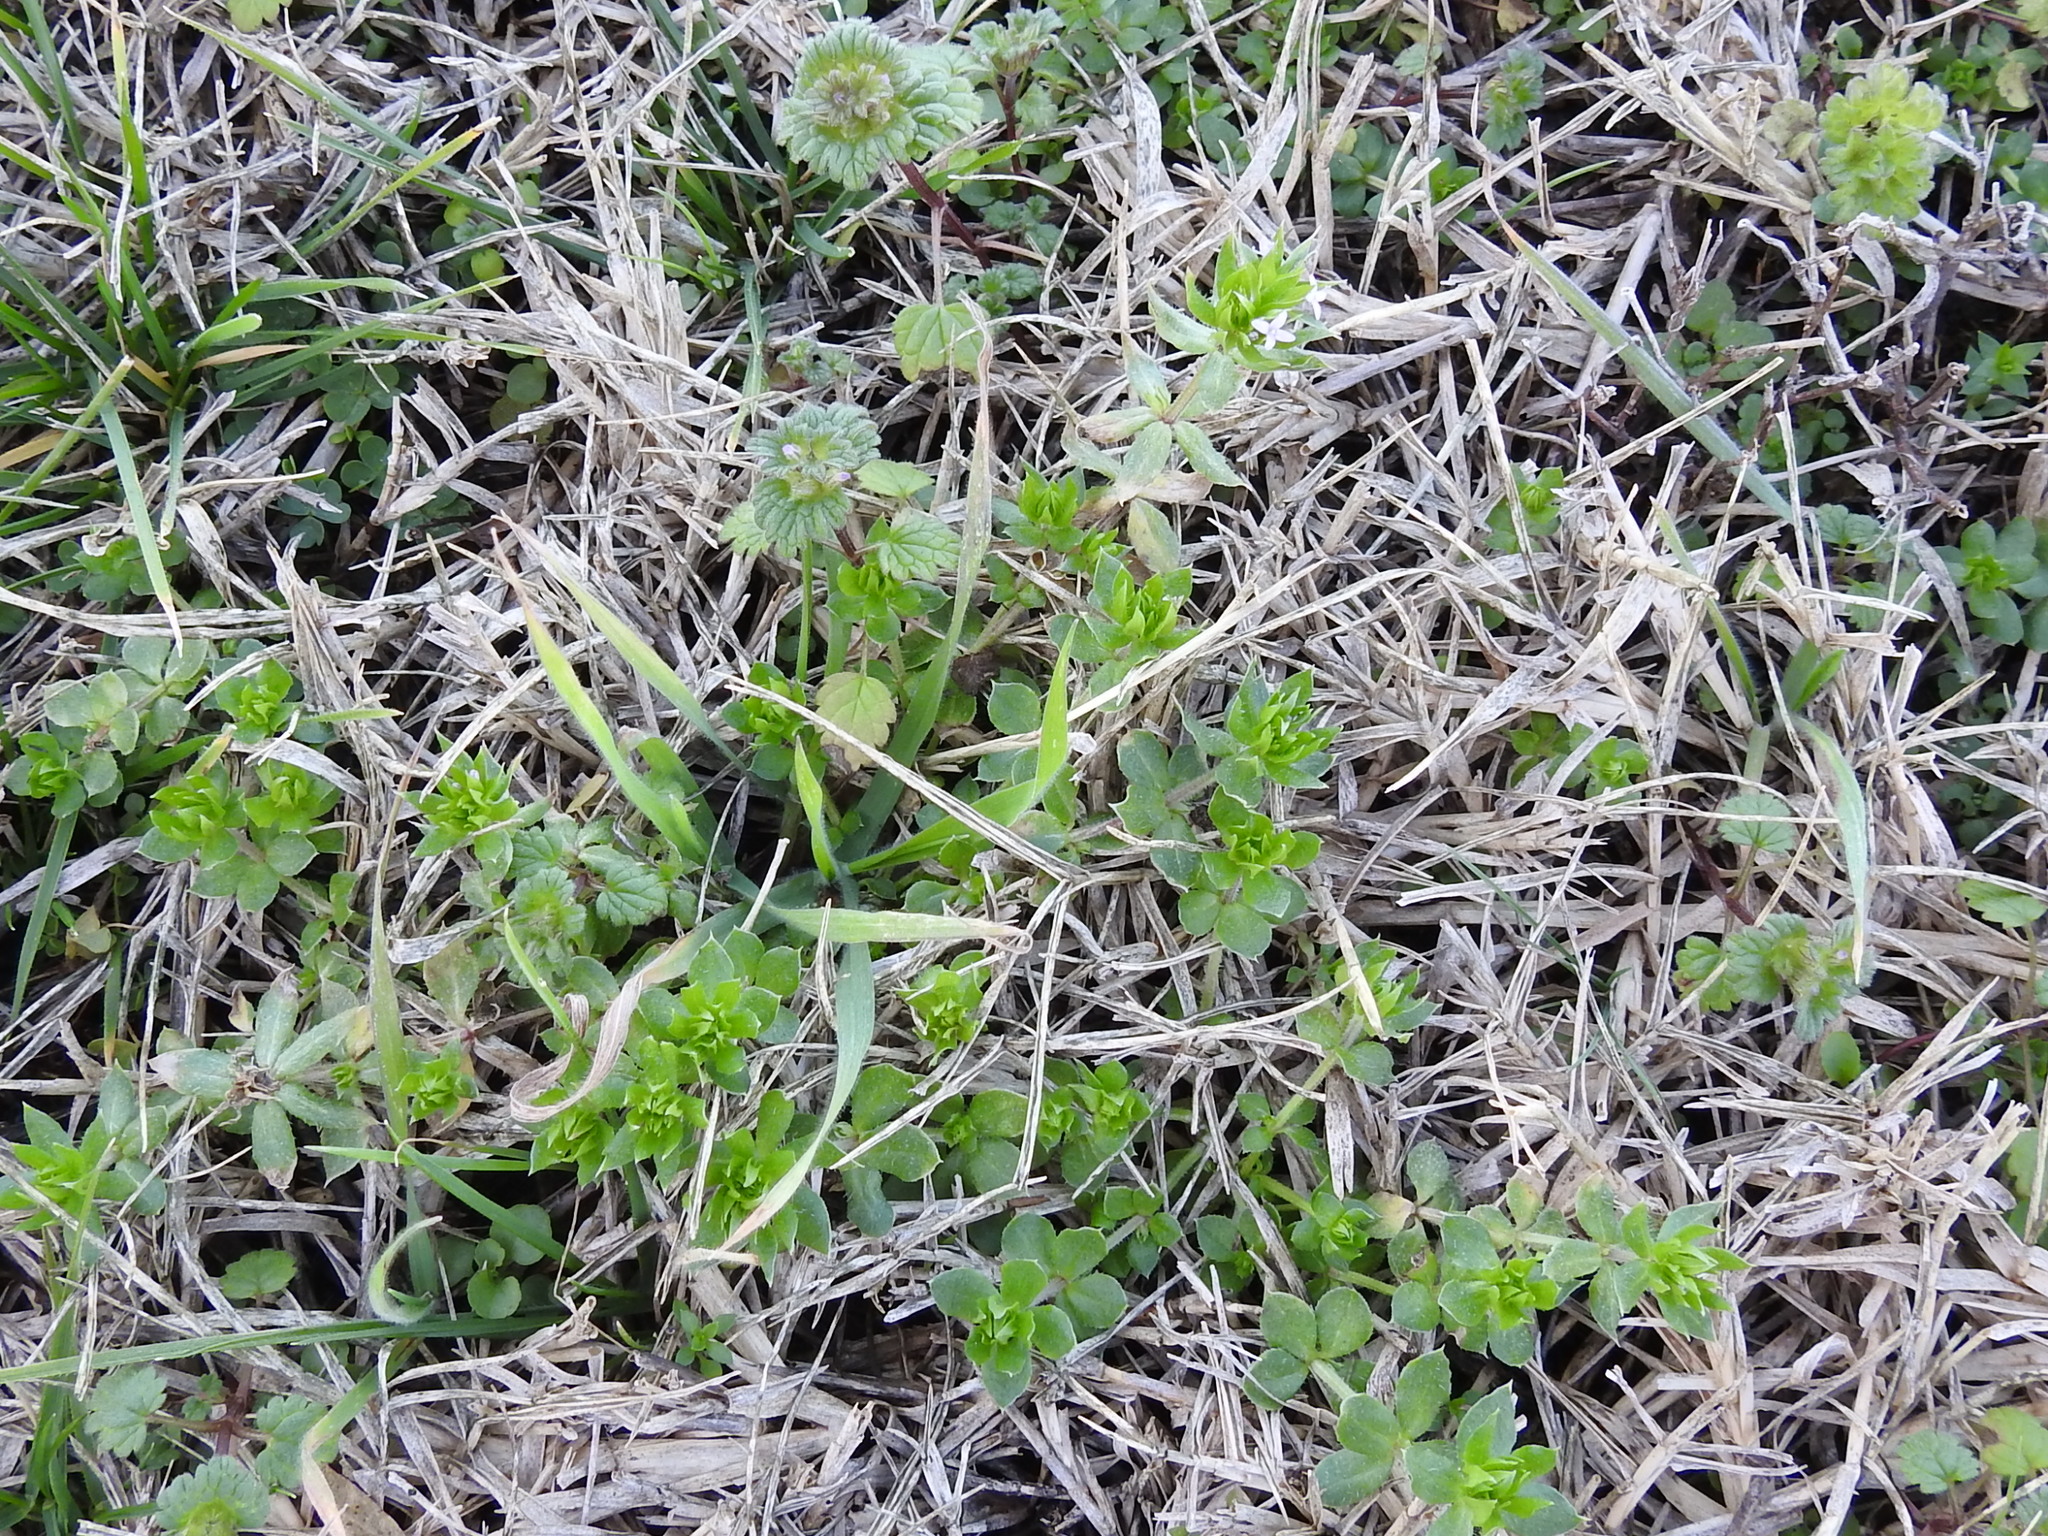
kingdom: Plantae
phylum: Tracheophyta
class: Magnoliopsida
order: Gentianales
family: Rubiaceae
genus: Sherardia
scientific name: Sherardia arvensis
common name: Field madder
